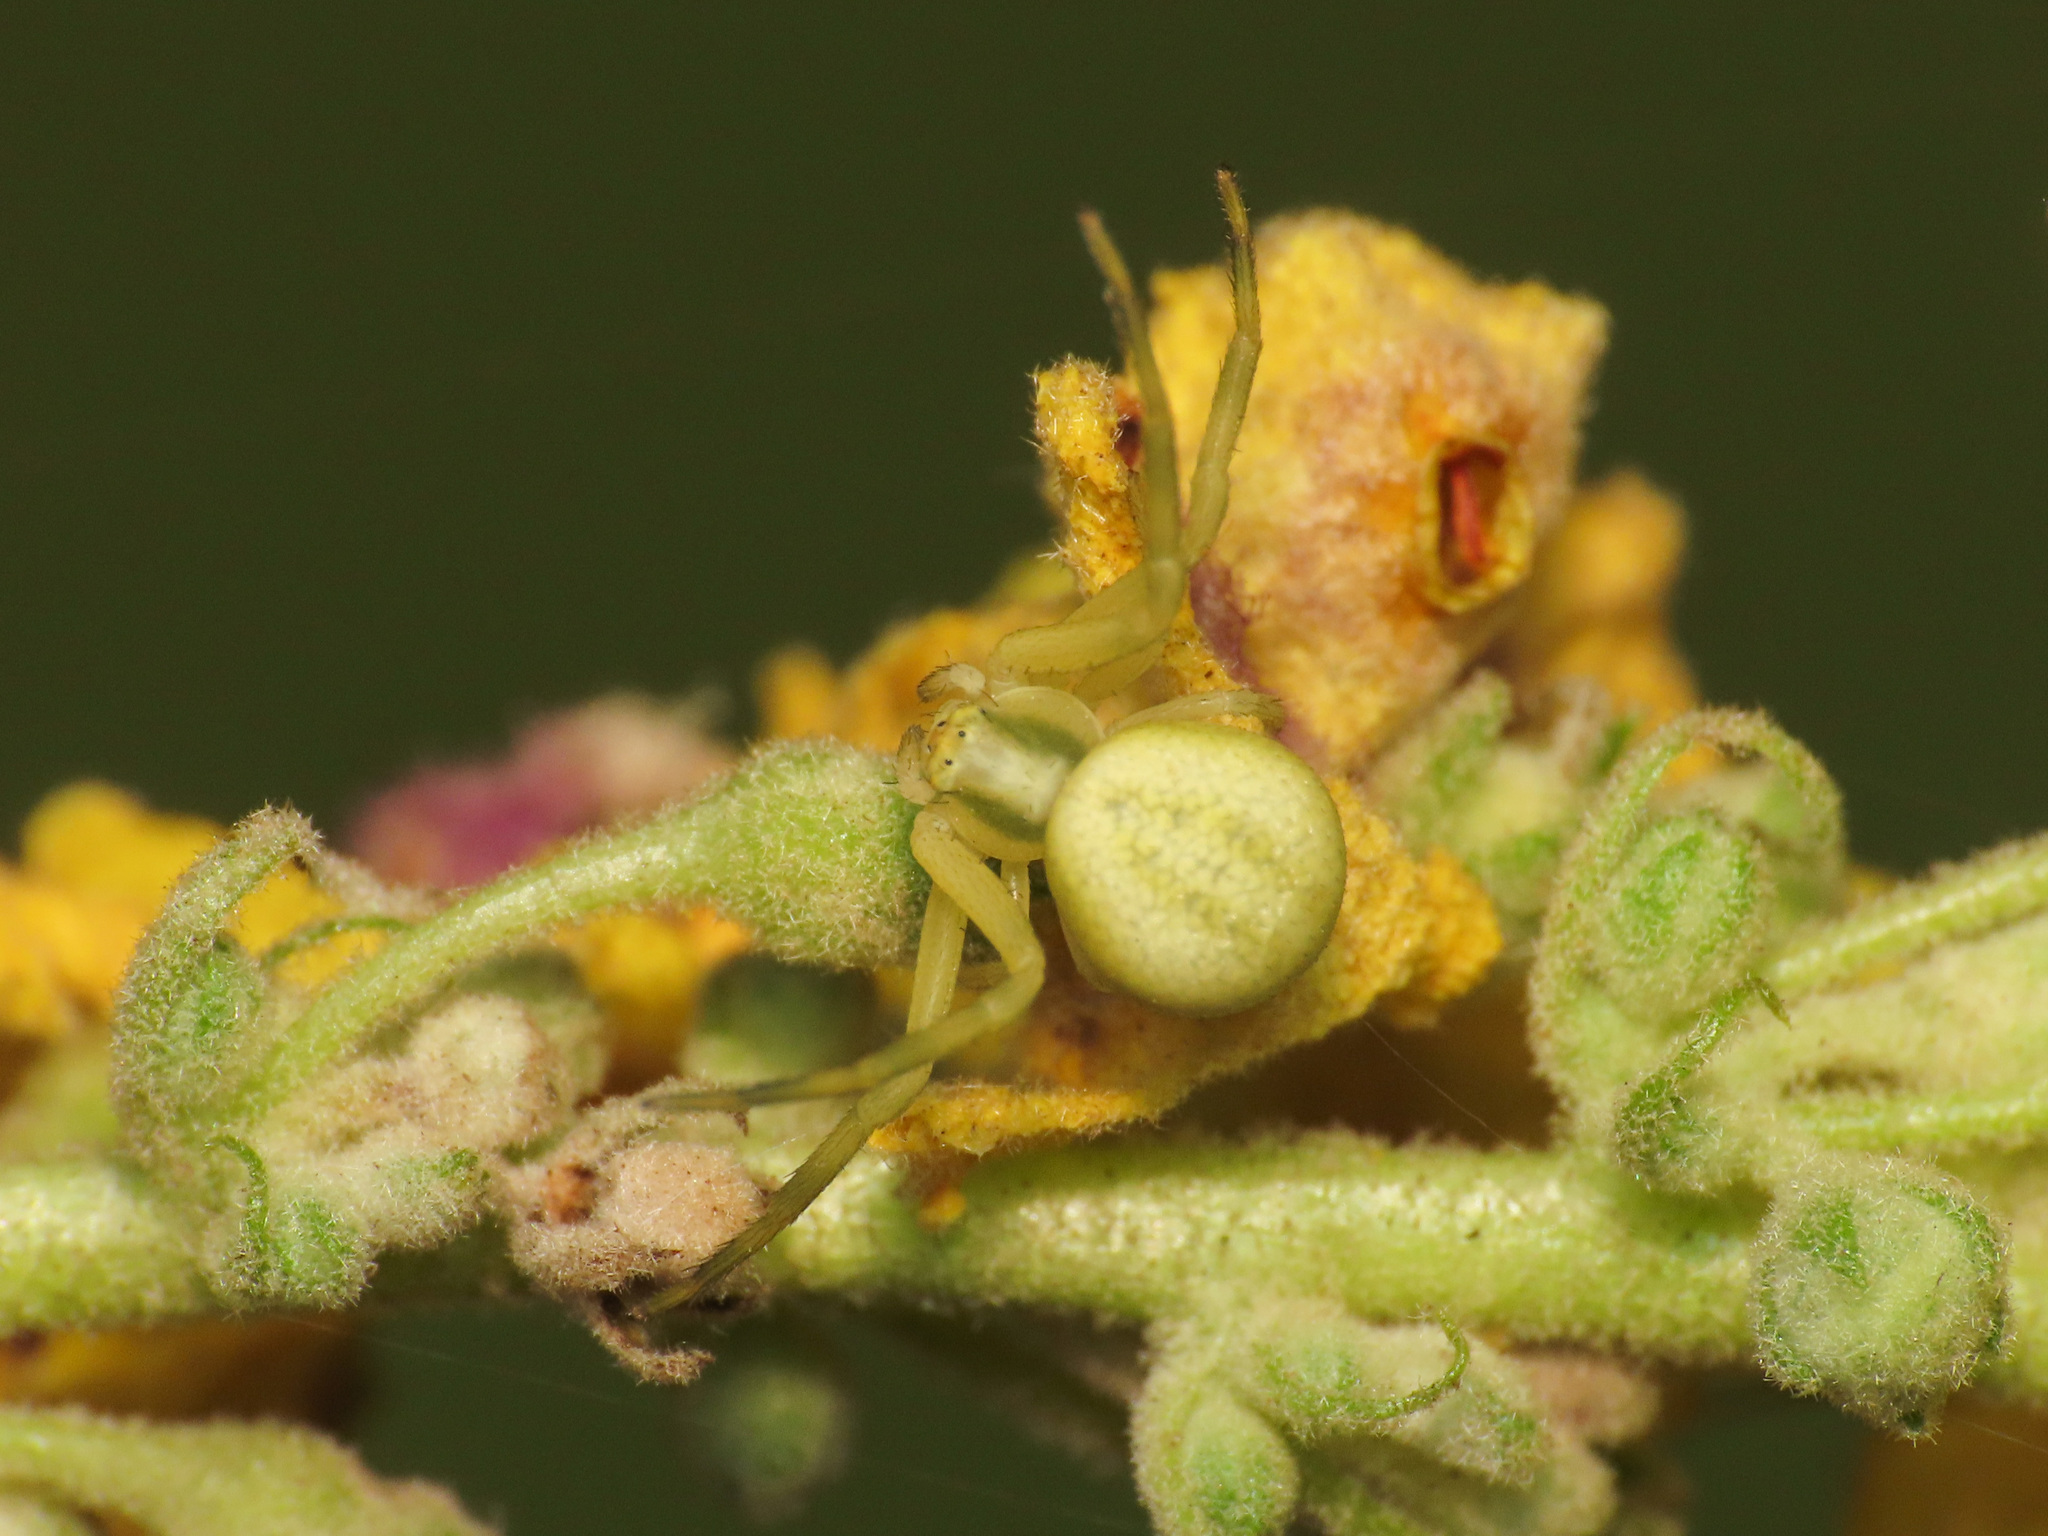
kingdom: Animalia
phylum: Arthropoda
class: Arachnida
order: Araneae
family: Thomisidae
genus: Misumena
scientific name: Misumena vatia
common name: Goldenrod crab spider
